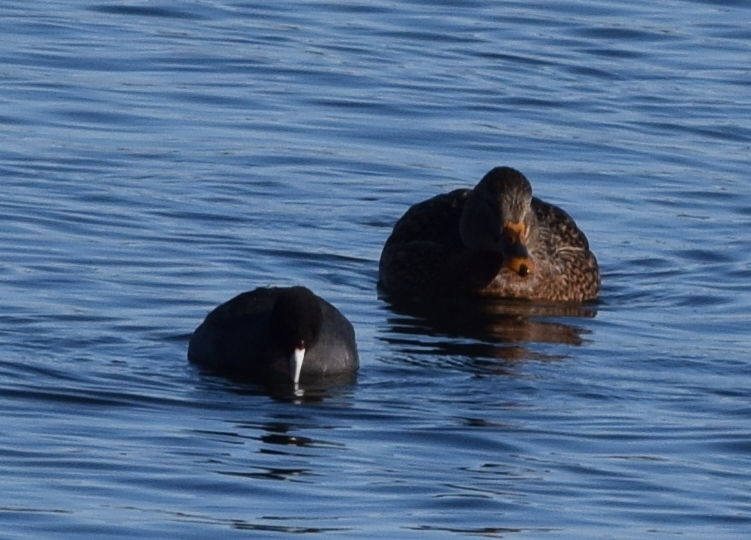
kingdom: Animalia
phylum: Chordata
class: Aves
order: Gruiformes
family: Rallidae
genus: Fulica
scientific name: Fulica americana
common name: American coot
